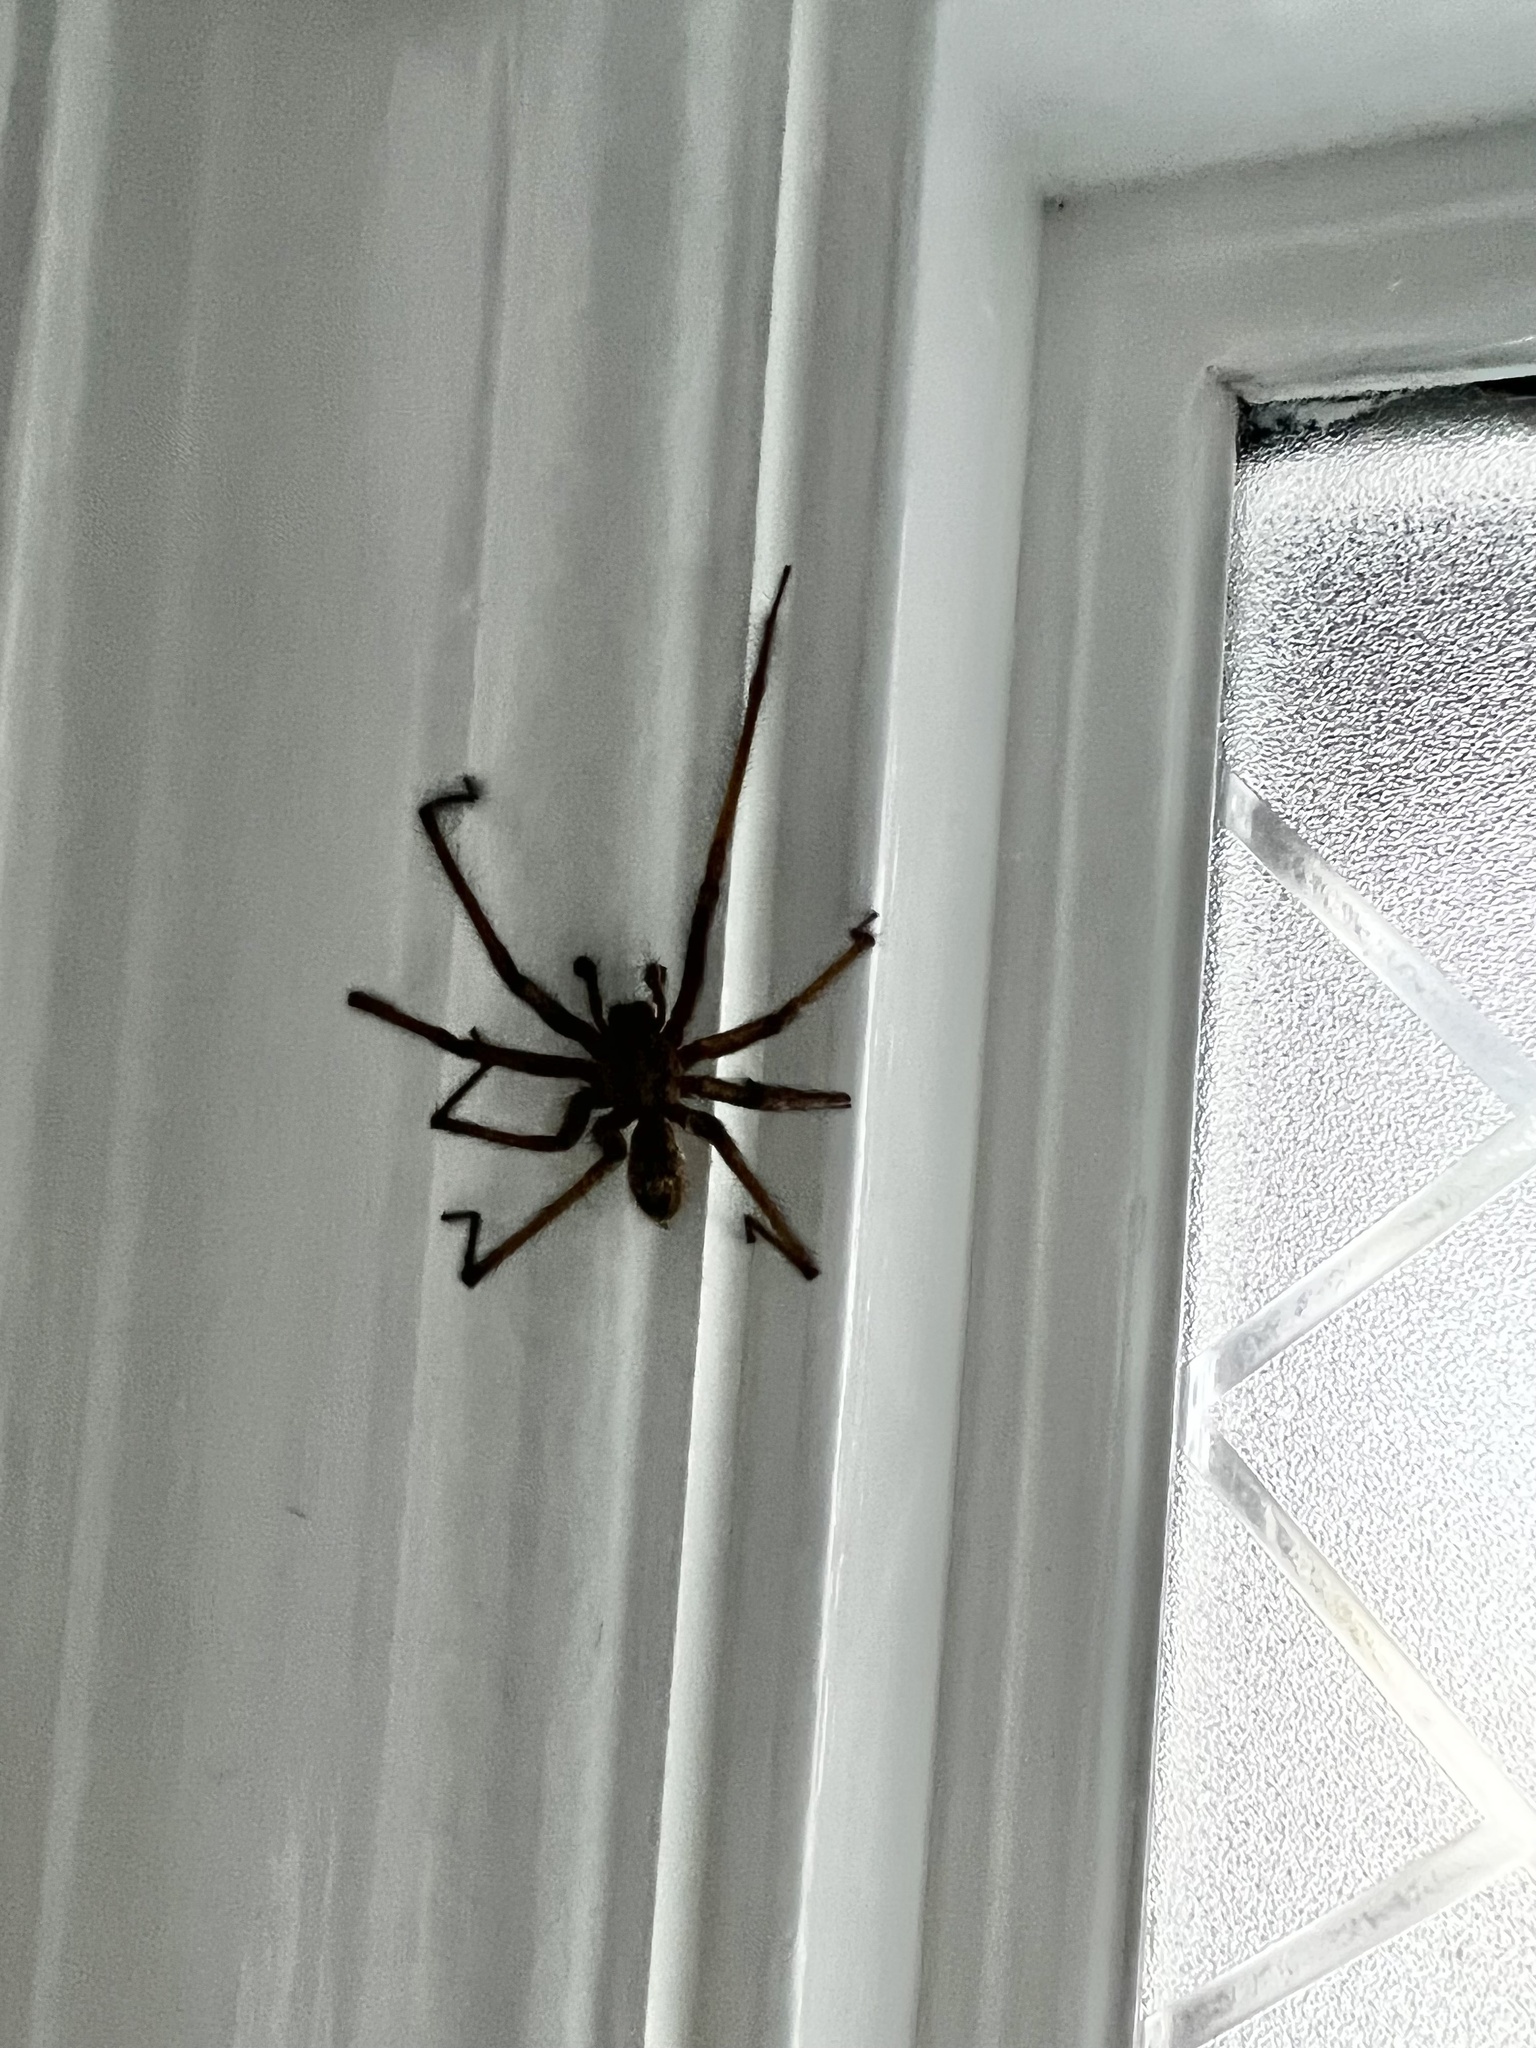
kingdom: Animalia
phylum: Arthropoda
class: Arachnida
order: Araneae
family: Agelenidae
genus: Eratigena
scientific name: Eratigena duellica
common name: Giant house spider
